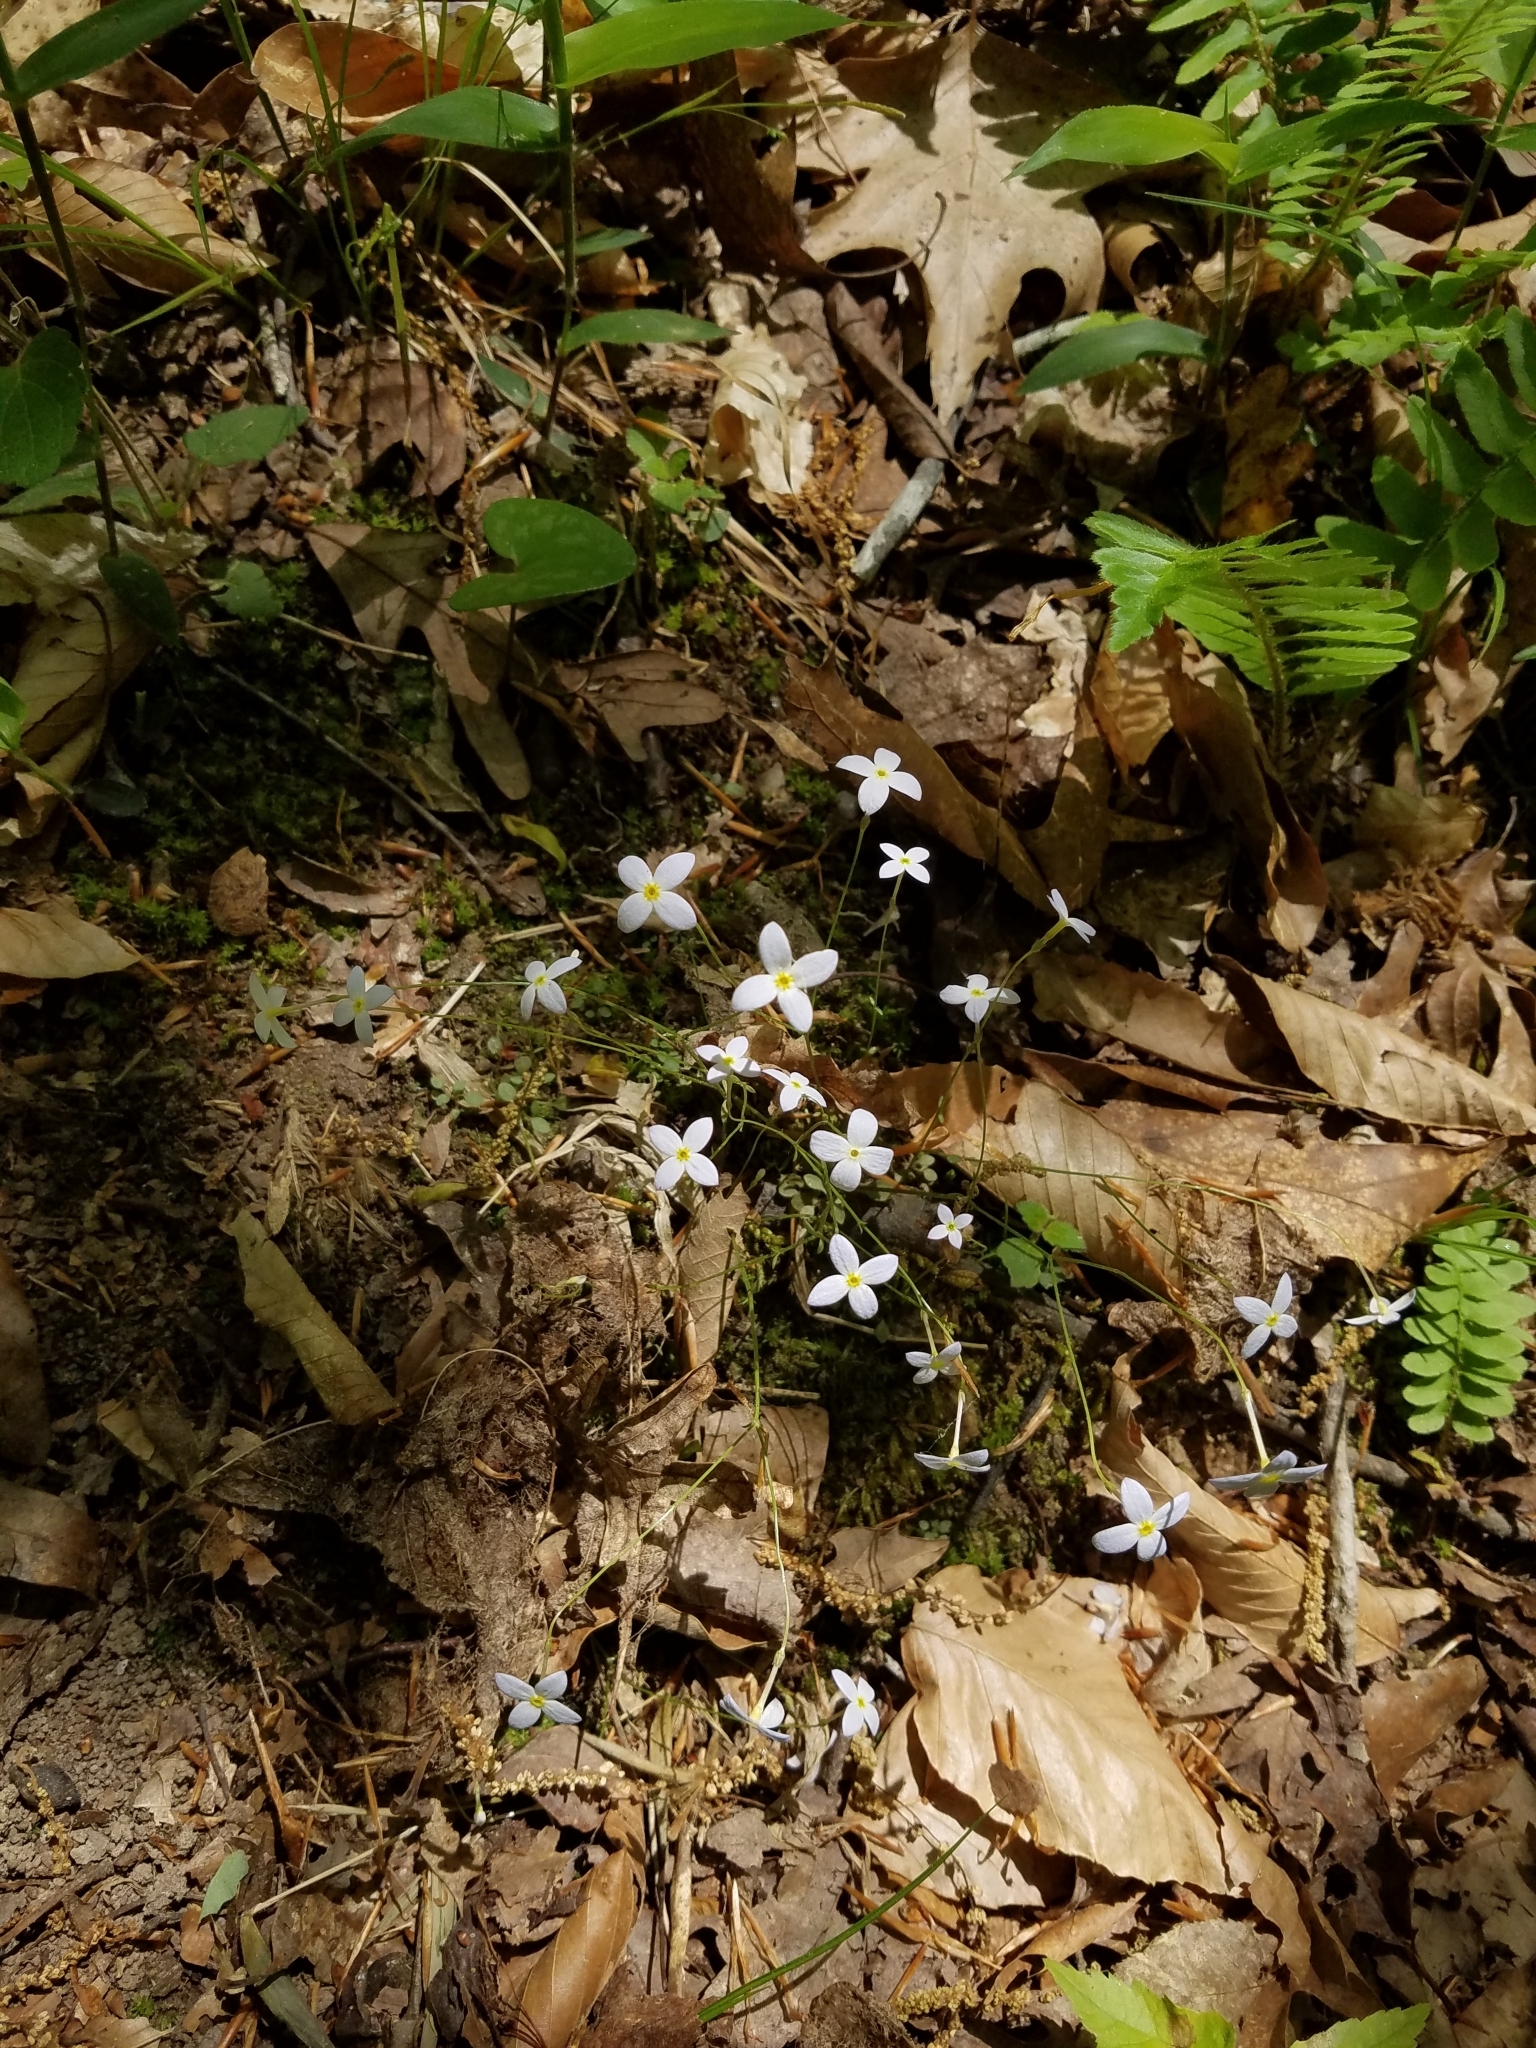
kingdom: Plantae
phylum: Tracheophyta
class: Magnoliopsida
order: Gentianales
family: Rubiaceae
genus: Houstonia
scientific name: Houstonia caerulea
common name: Bluets
